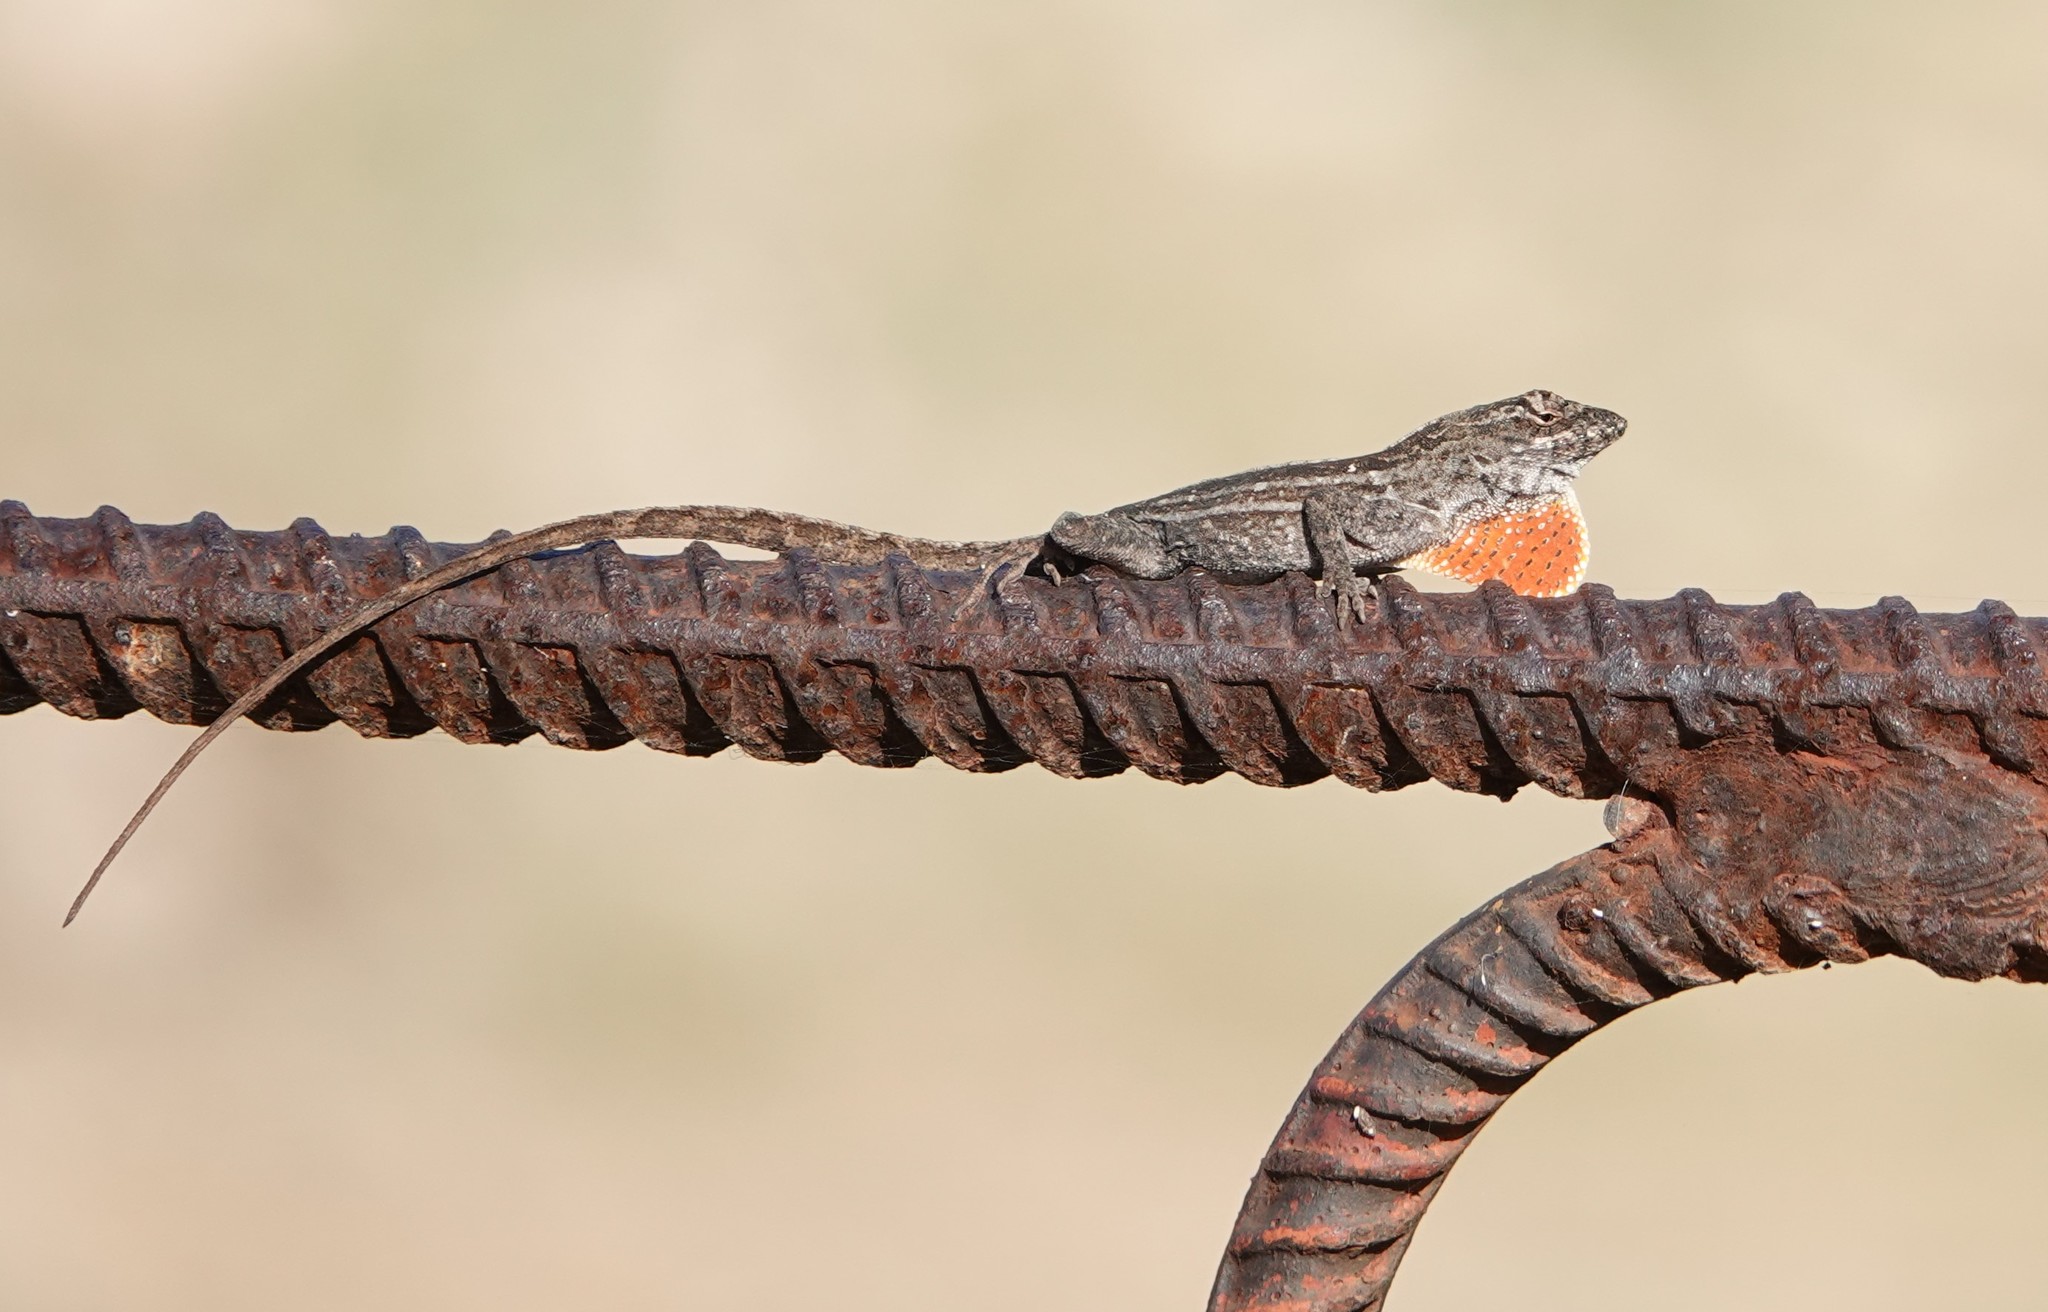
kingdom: Animalia
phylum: Chordata
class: Squamata
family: Dactyloidae
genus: Anolis
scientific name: Anolis sagrei
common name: Brown anole
